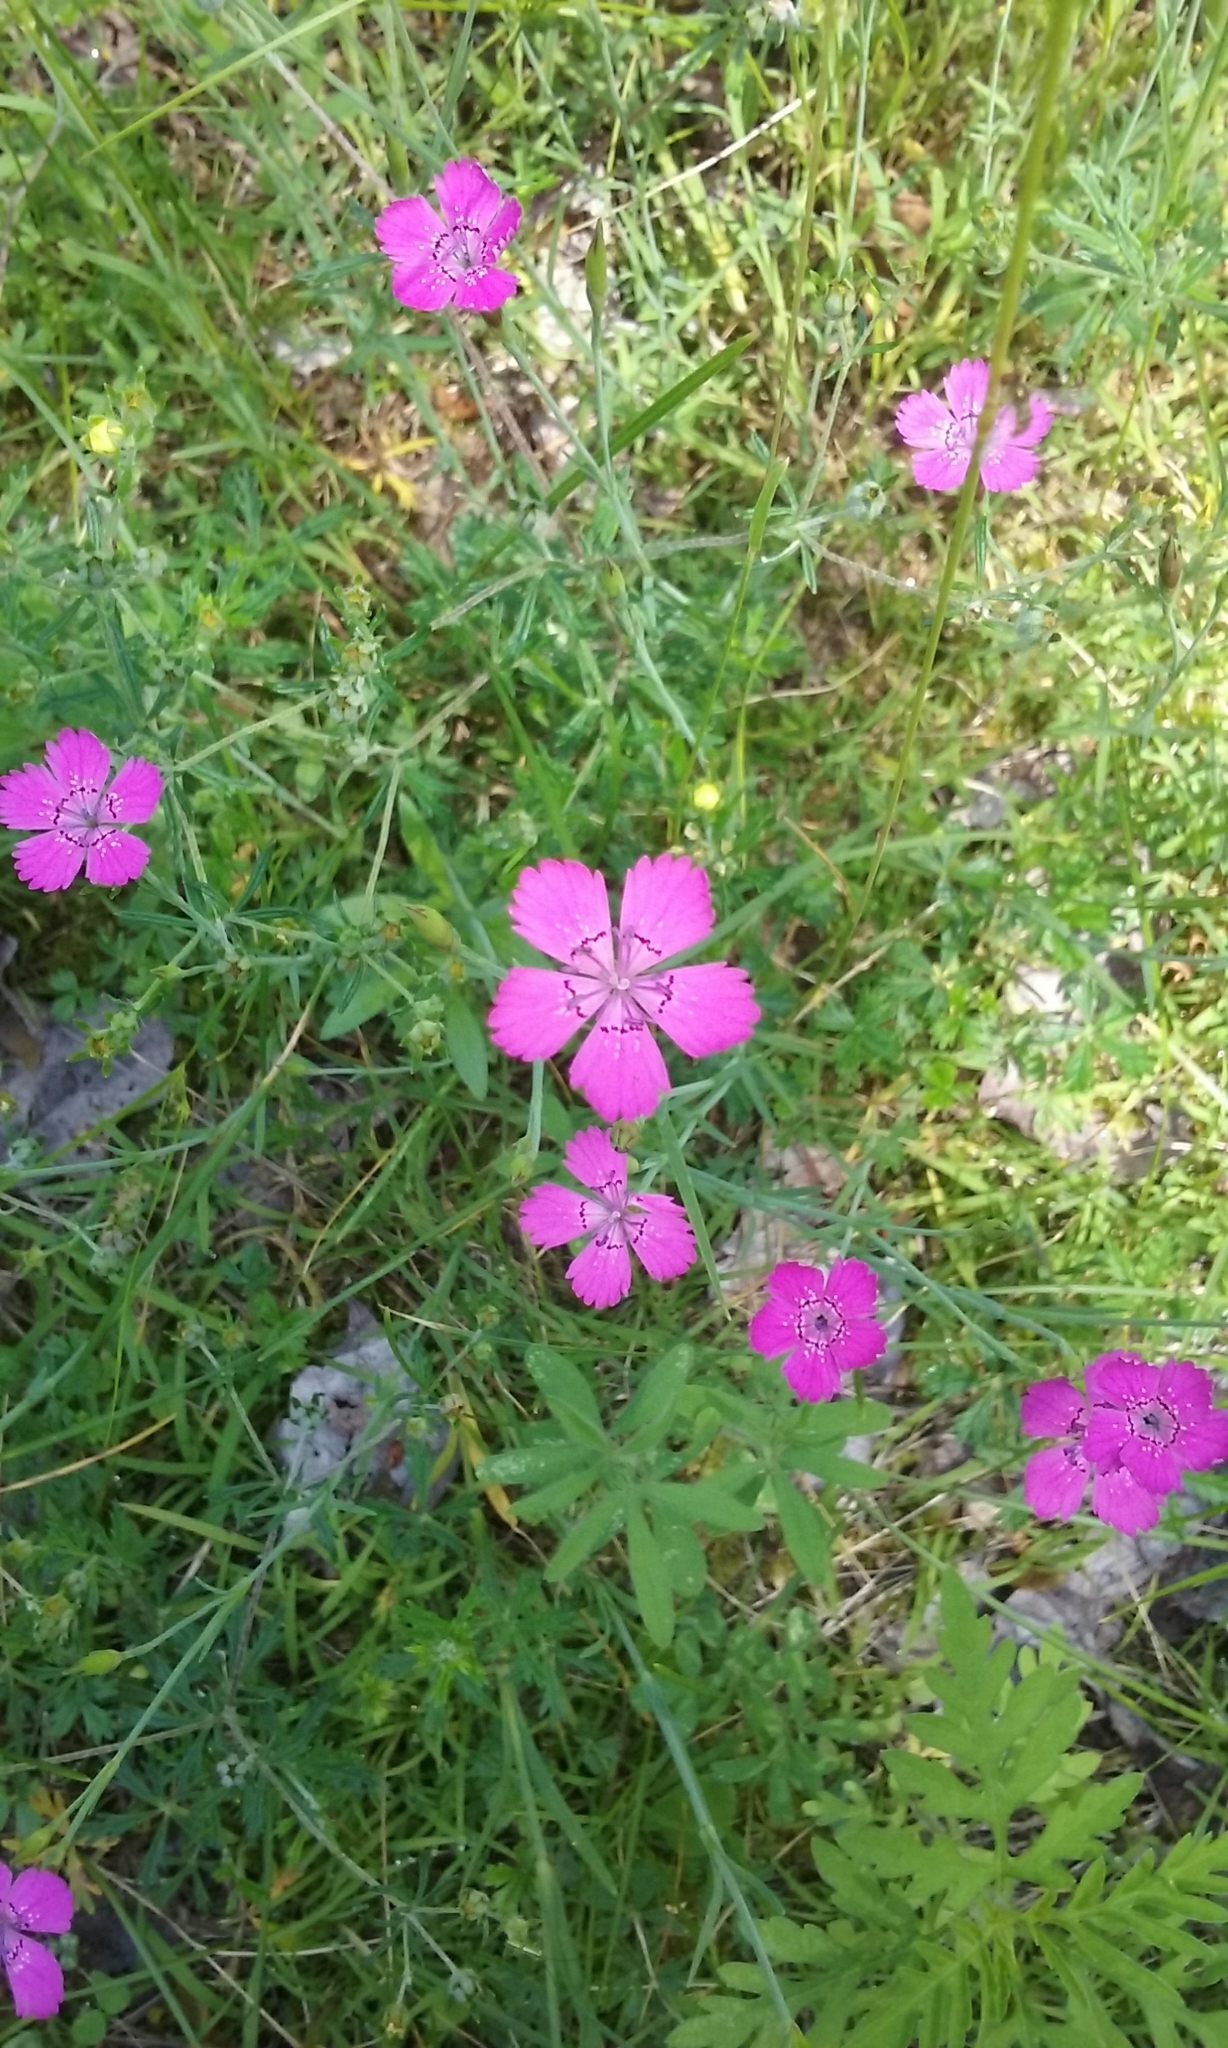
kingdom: Plantae
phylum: Tracheophyta
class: Magnoliopsida
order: Caryophyllales
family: Caryophyllaceae
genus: Dianthus
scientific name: Dianthus deltoides
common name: Maiden pink
